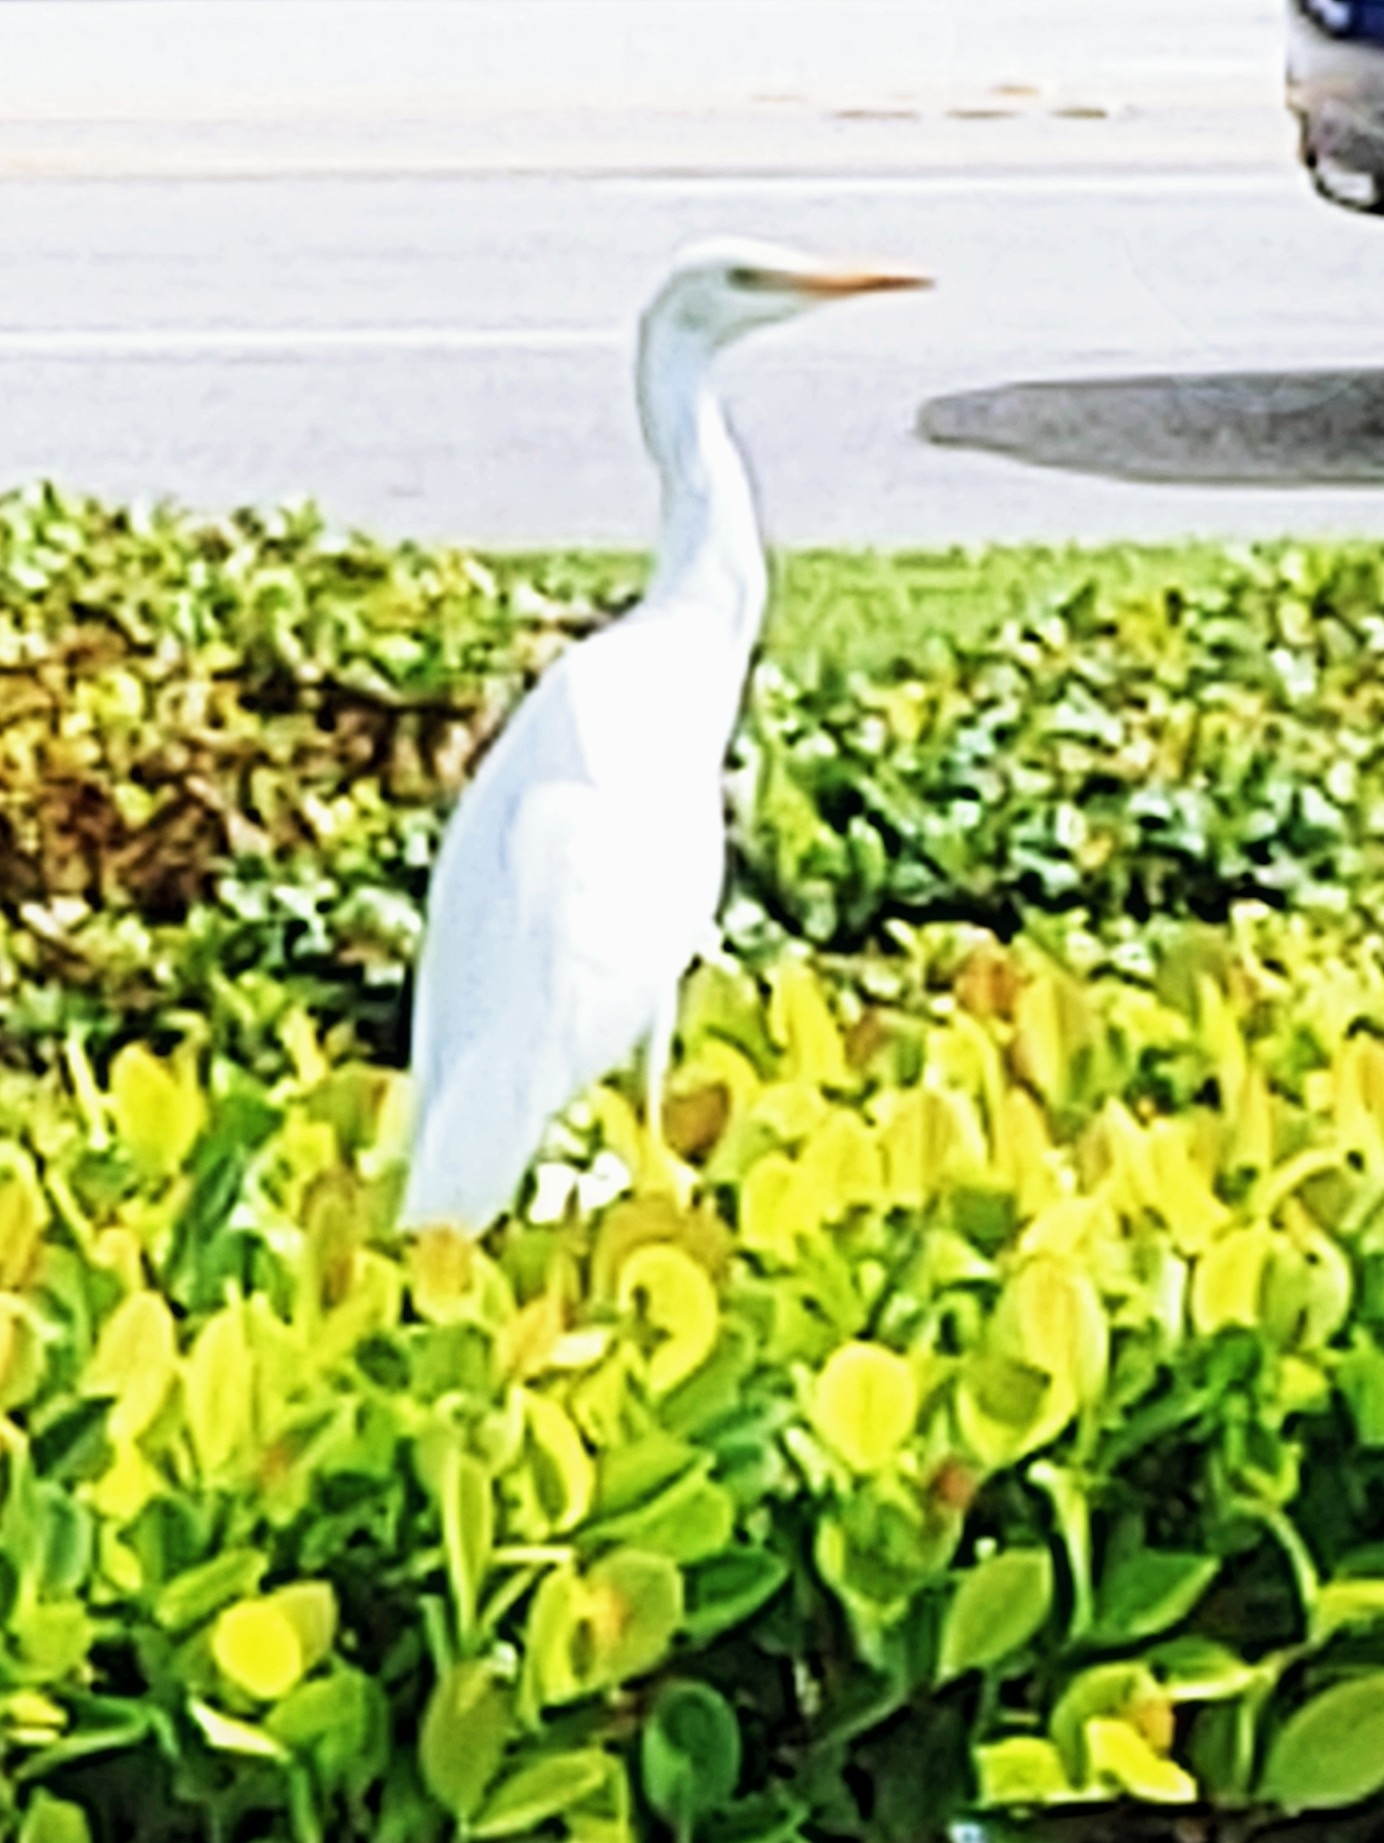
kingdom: Animalia
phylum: Chordata
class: Aves
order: Pelecaniformes
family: Ardeidae
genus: Bubulcus
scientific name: Bubulcus ibis
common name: Cattle egret
